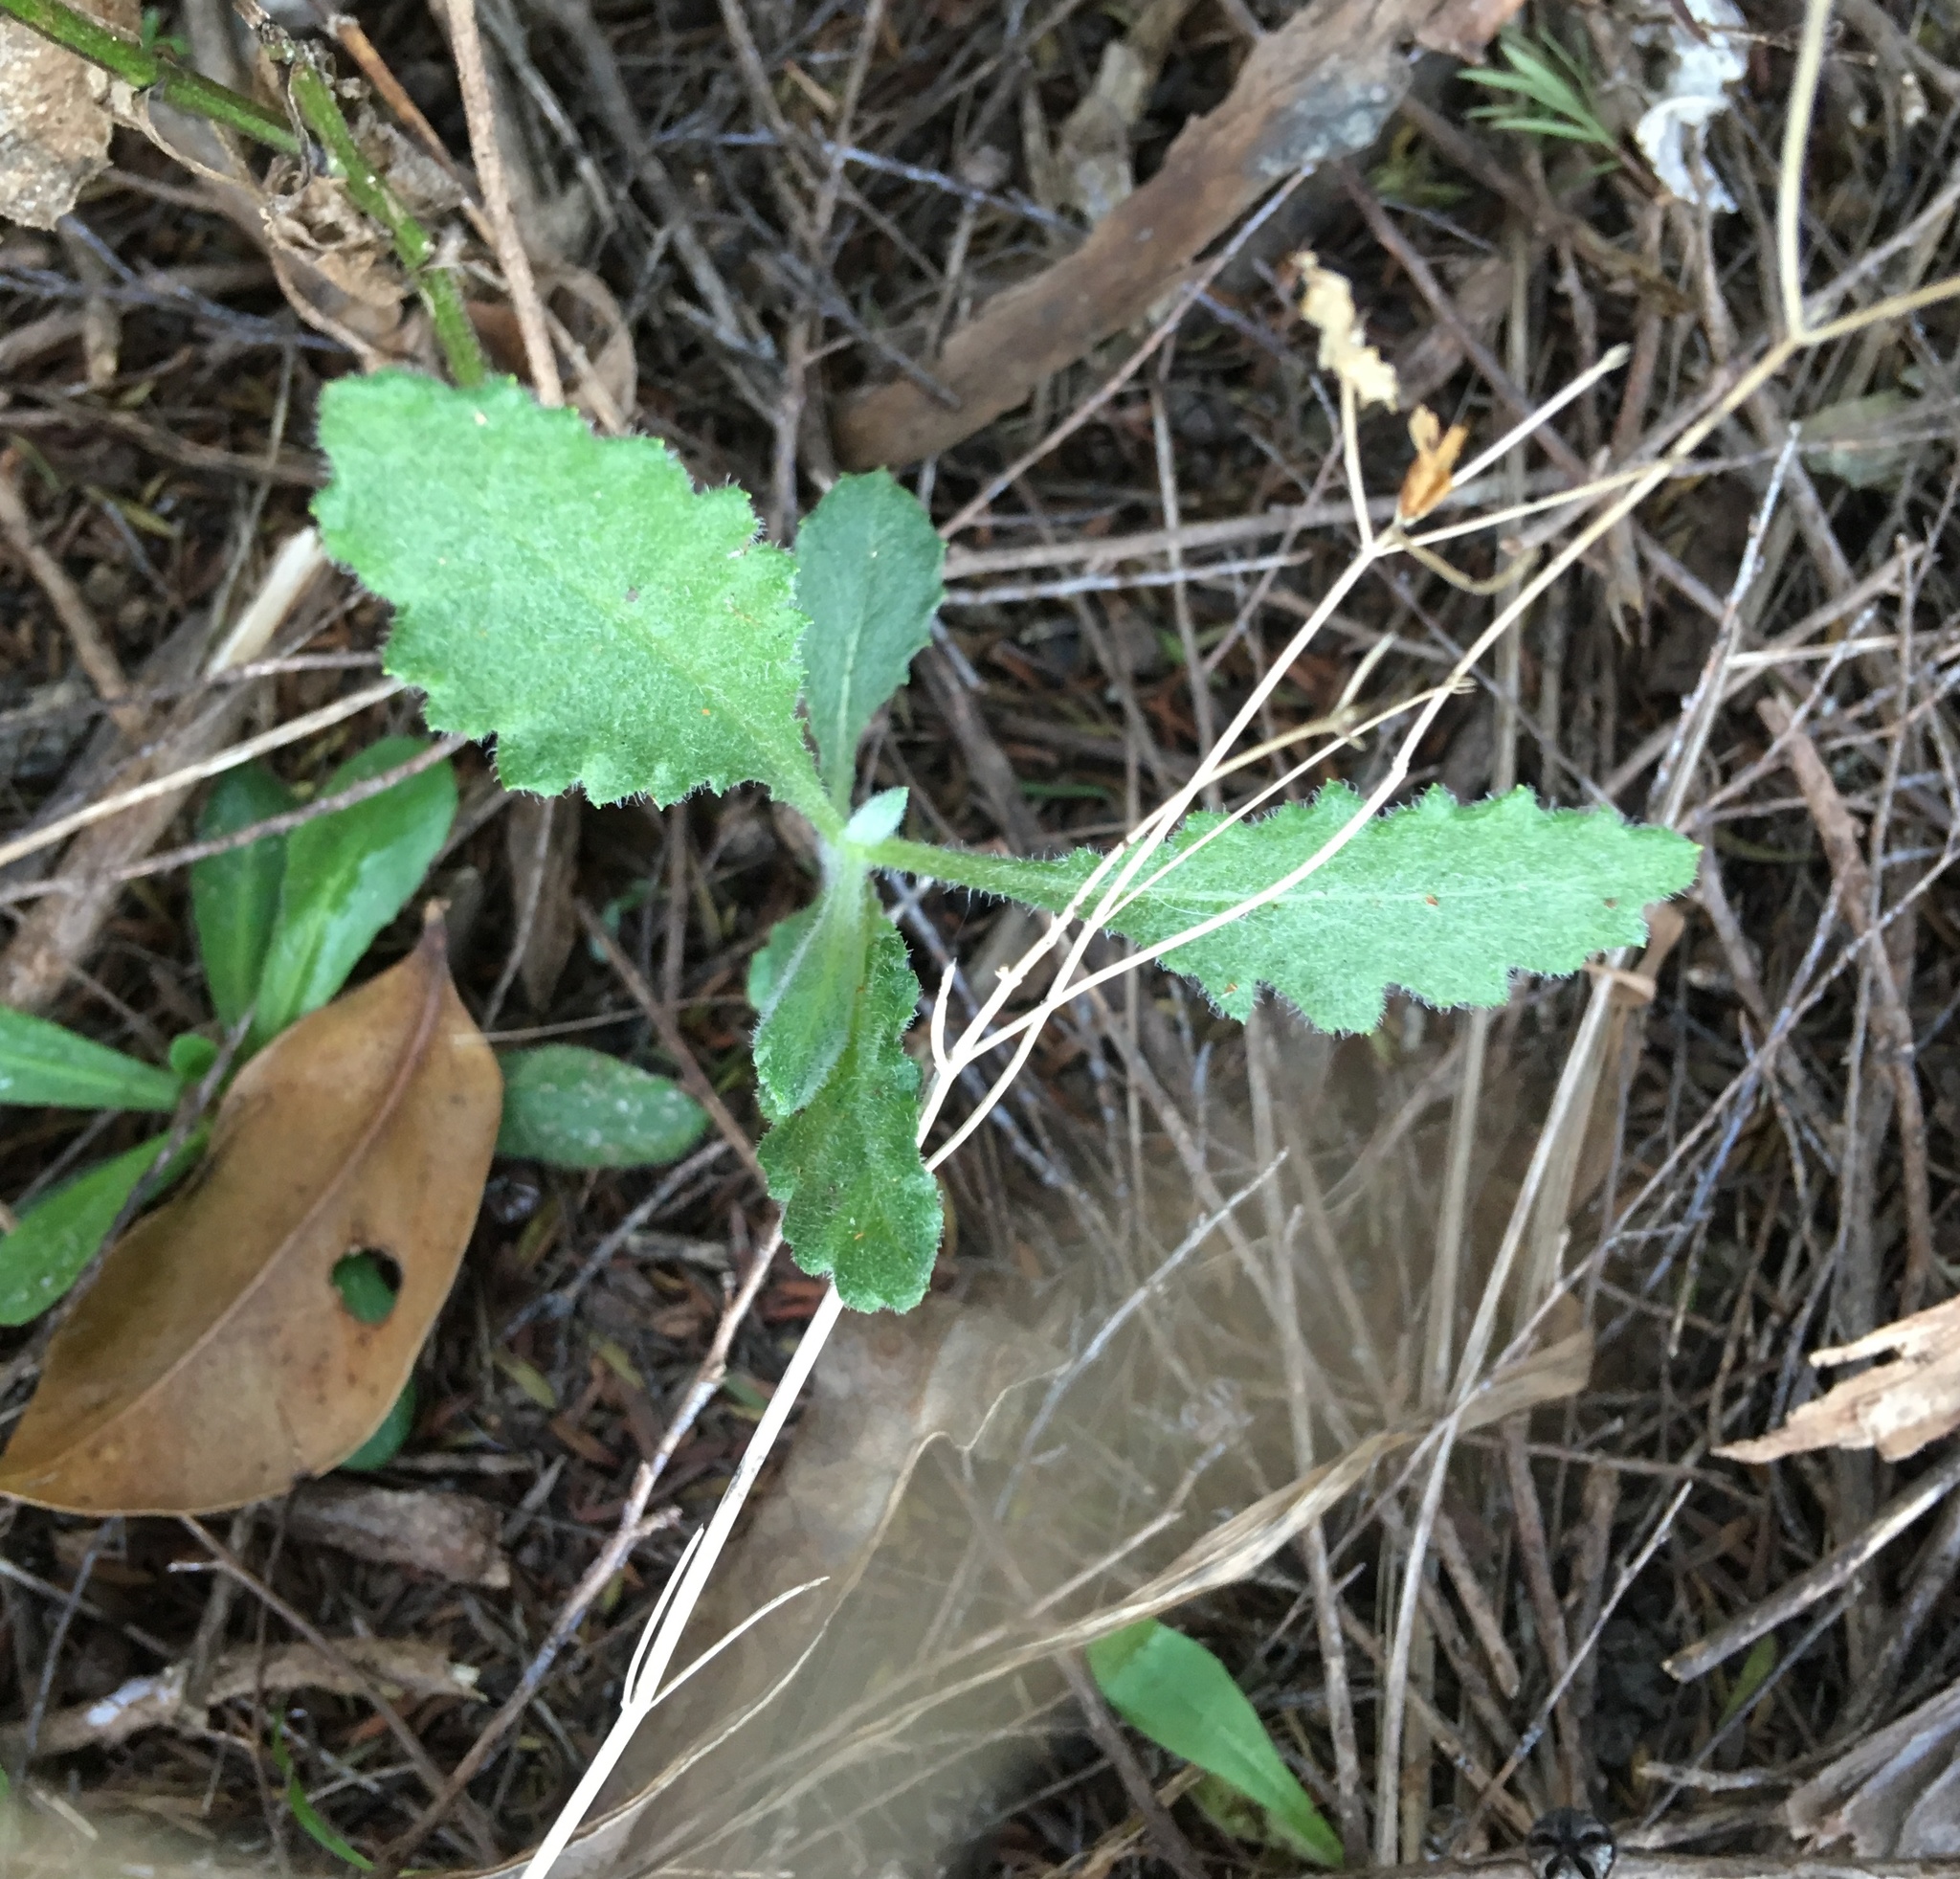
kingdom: Plantae
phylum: Tracheophyta
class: Magnoliopsida
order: Asterales
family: Asteraceae
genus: Senecio
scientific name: Senecio glomeratus
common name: Cutleaf burnweed
